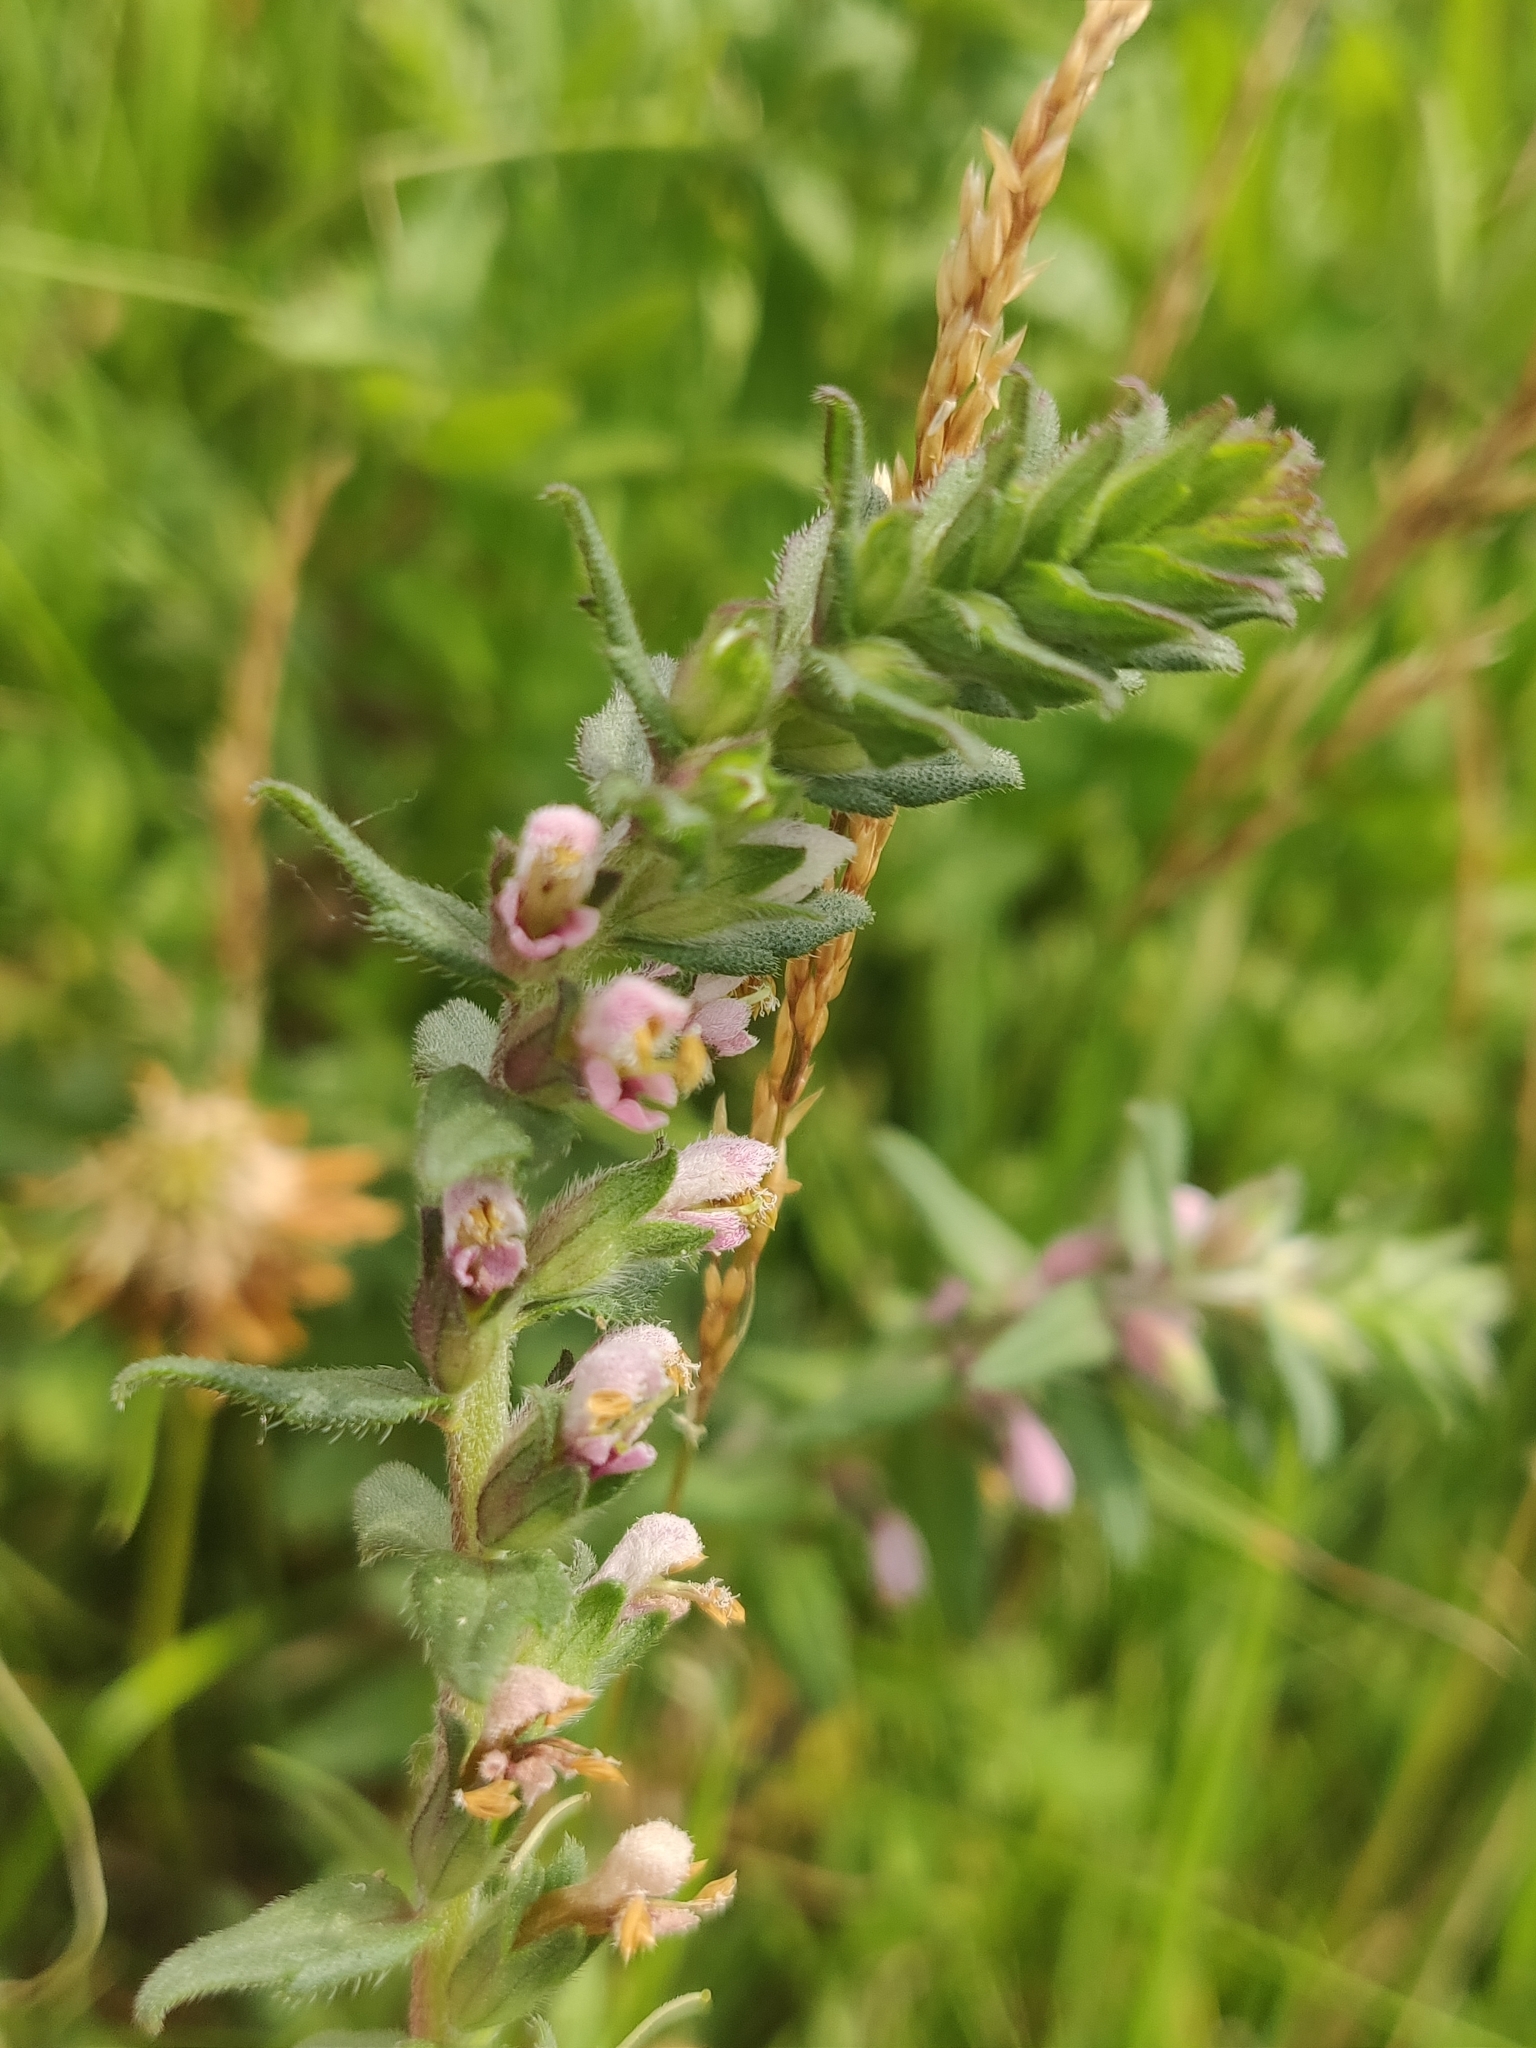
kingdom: Plantae
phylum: Tracheophyta
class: Magnoliopsida
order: Lamiales
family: Orobanchaceae
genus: Odontites
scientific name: Odontites vernus
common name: Red bartsia
